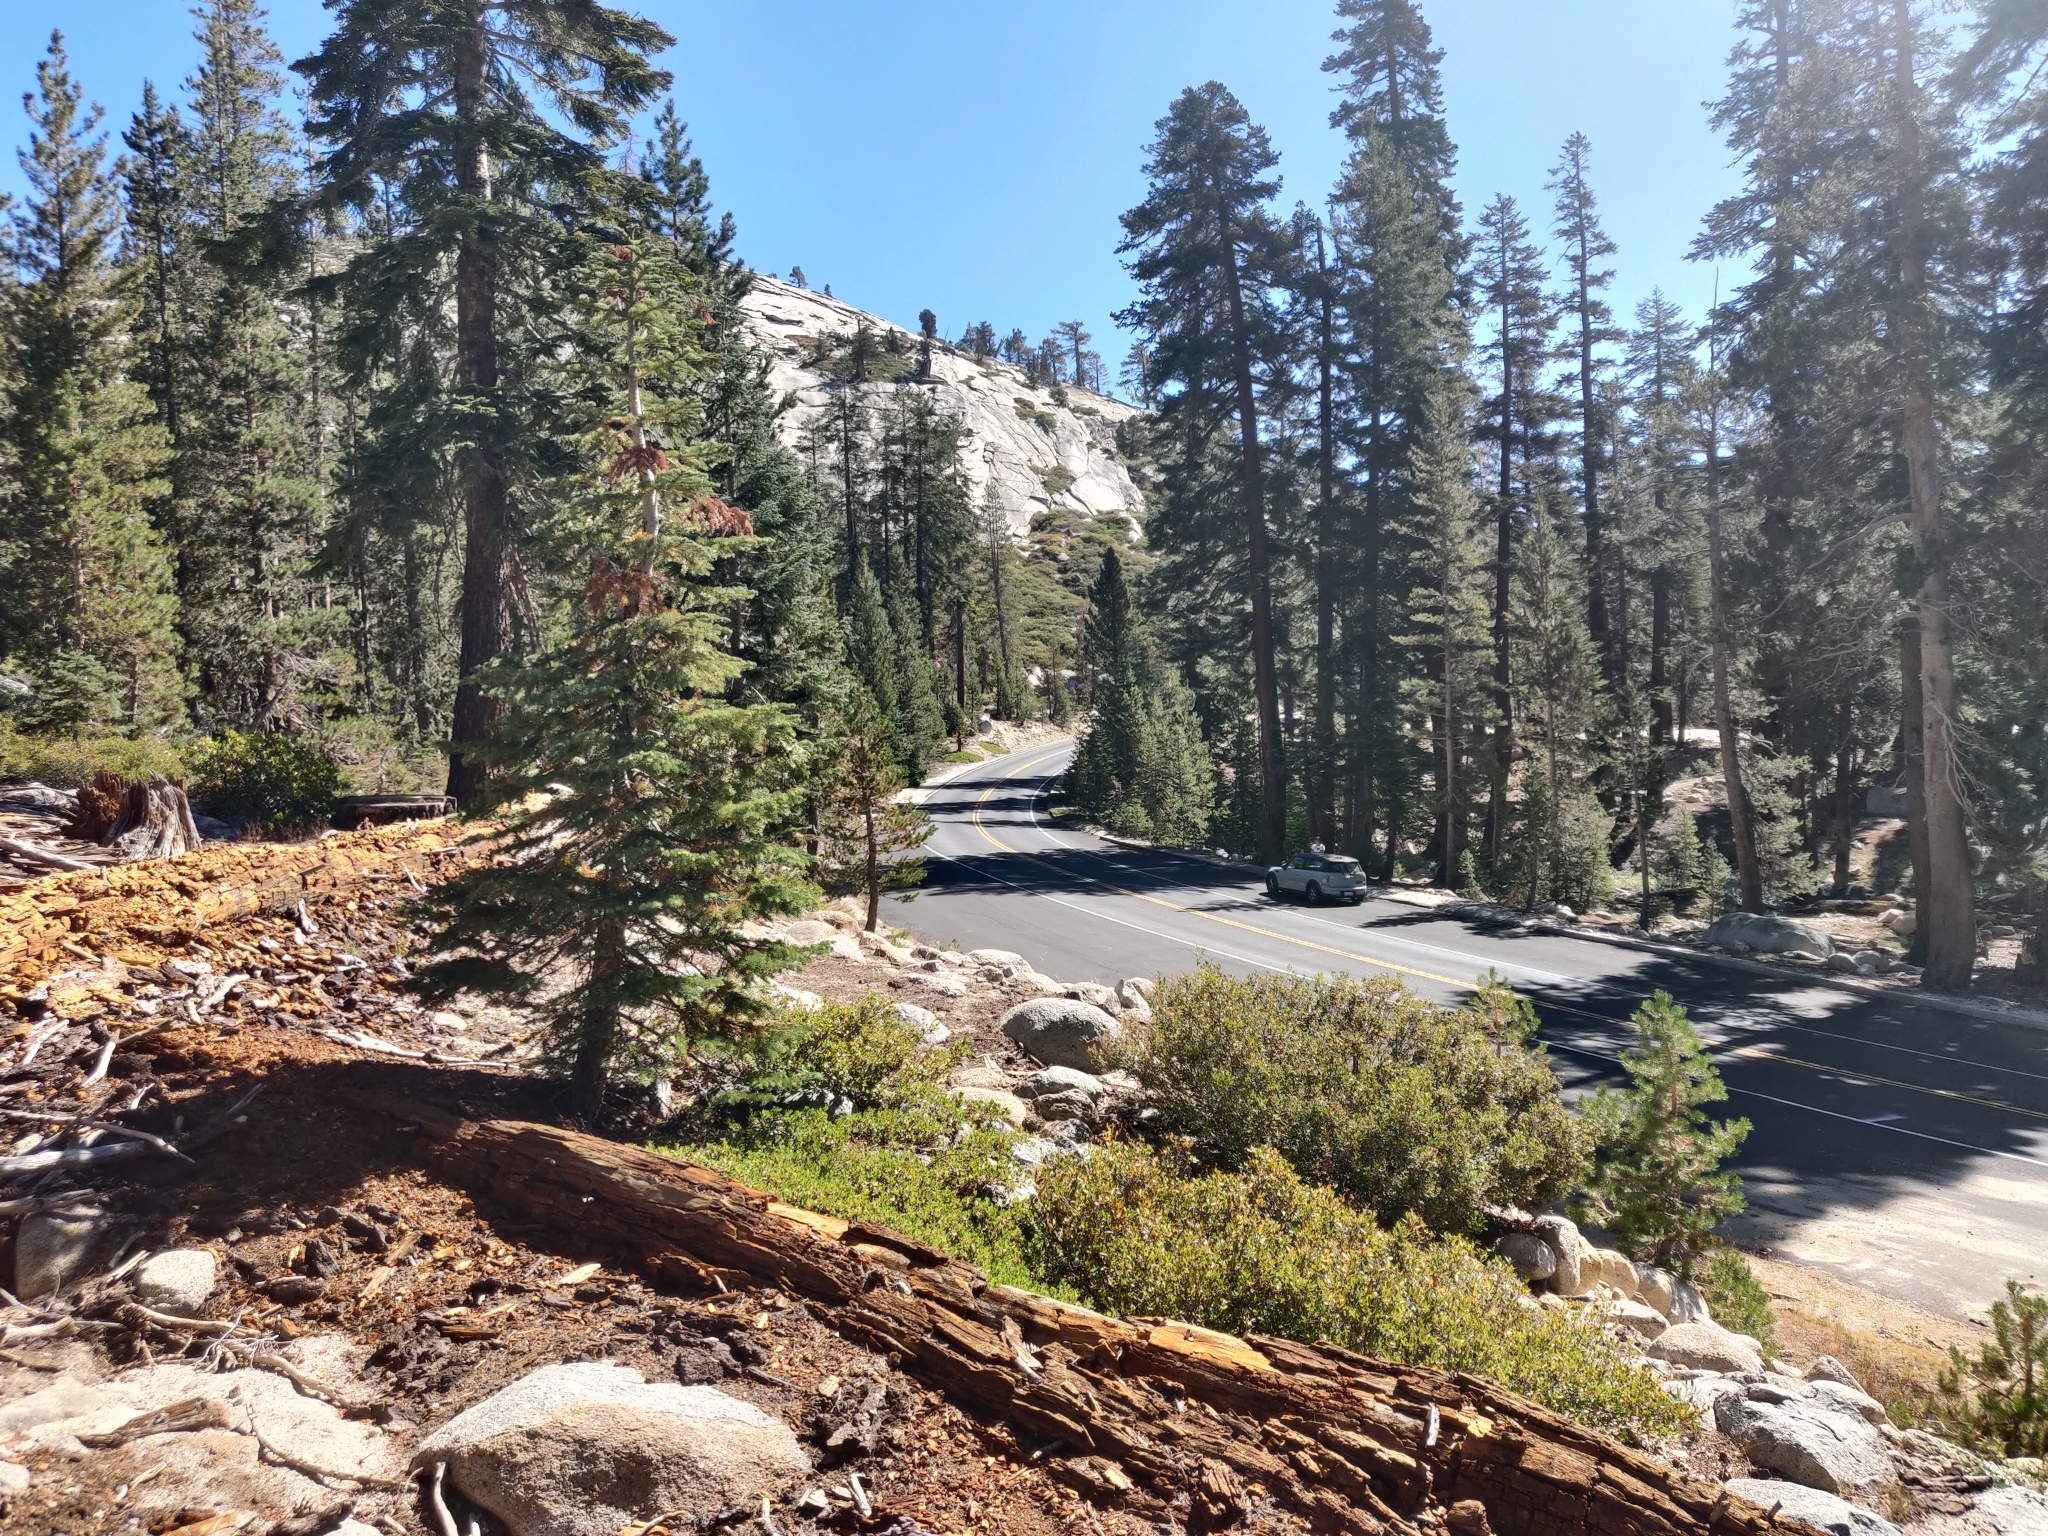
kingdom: Plantae
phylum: Tracheophyta
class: Magnoliopsida
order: Ericales
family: Ericaceae
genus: Arctostaphylos
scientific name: Arctostaphylos nevadensis
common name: Pinemat manzanita
